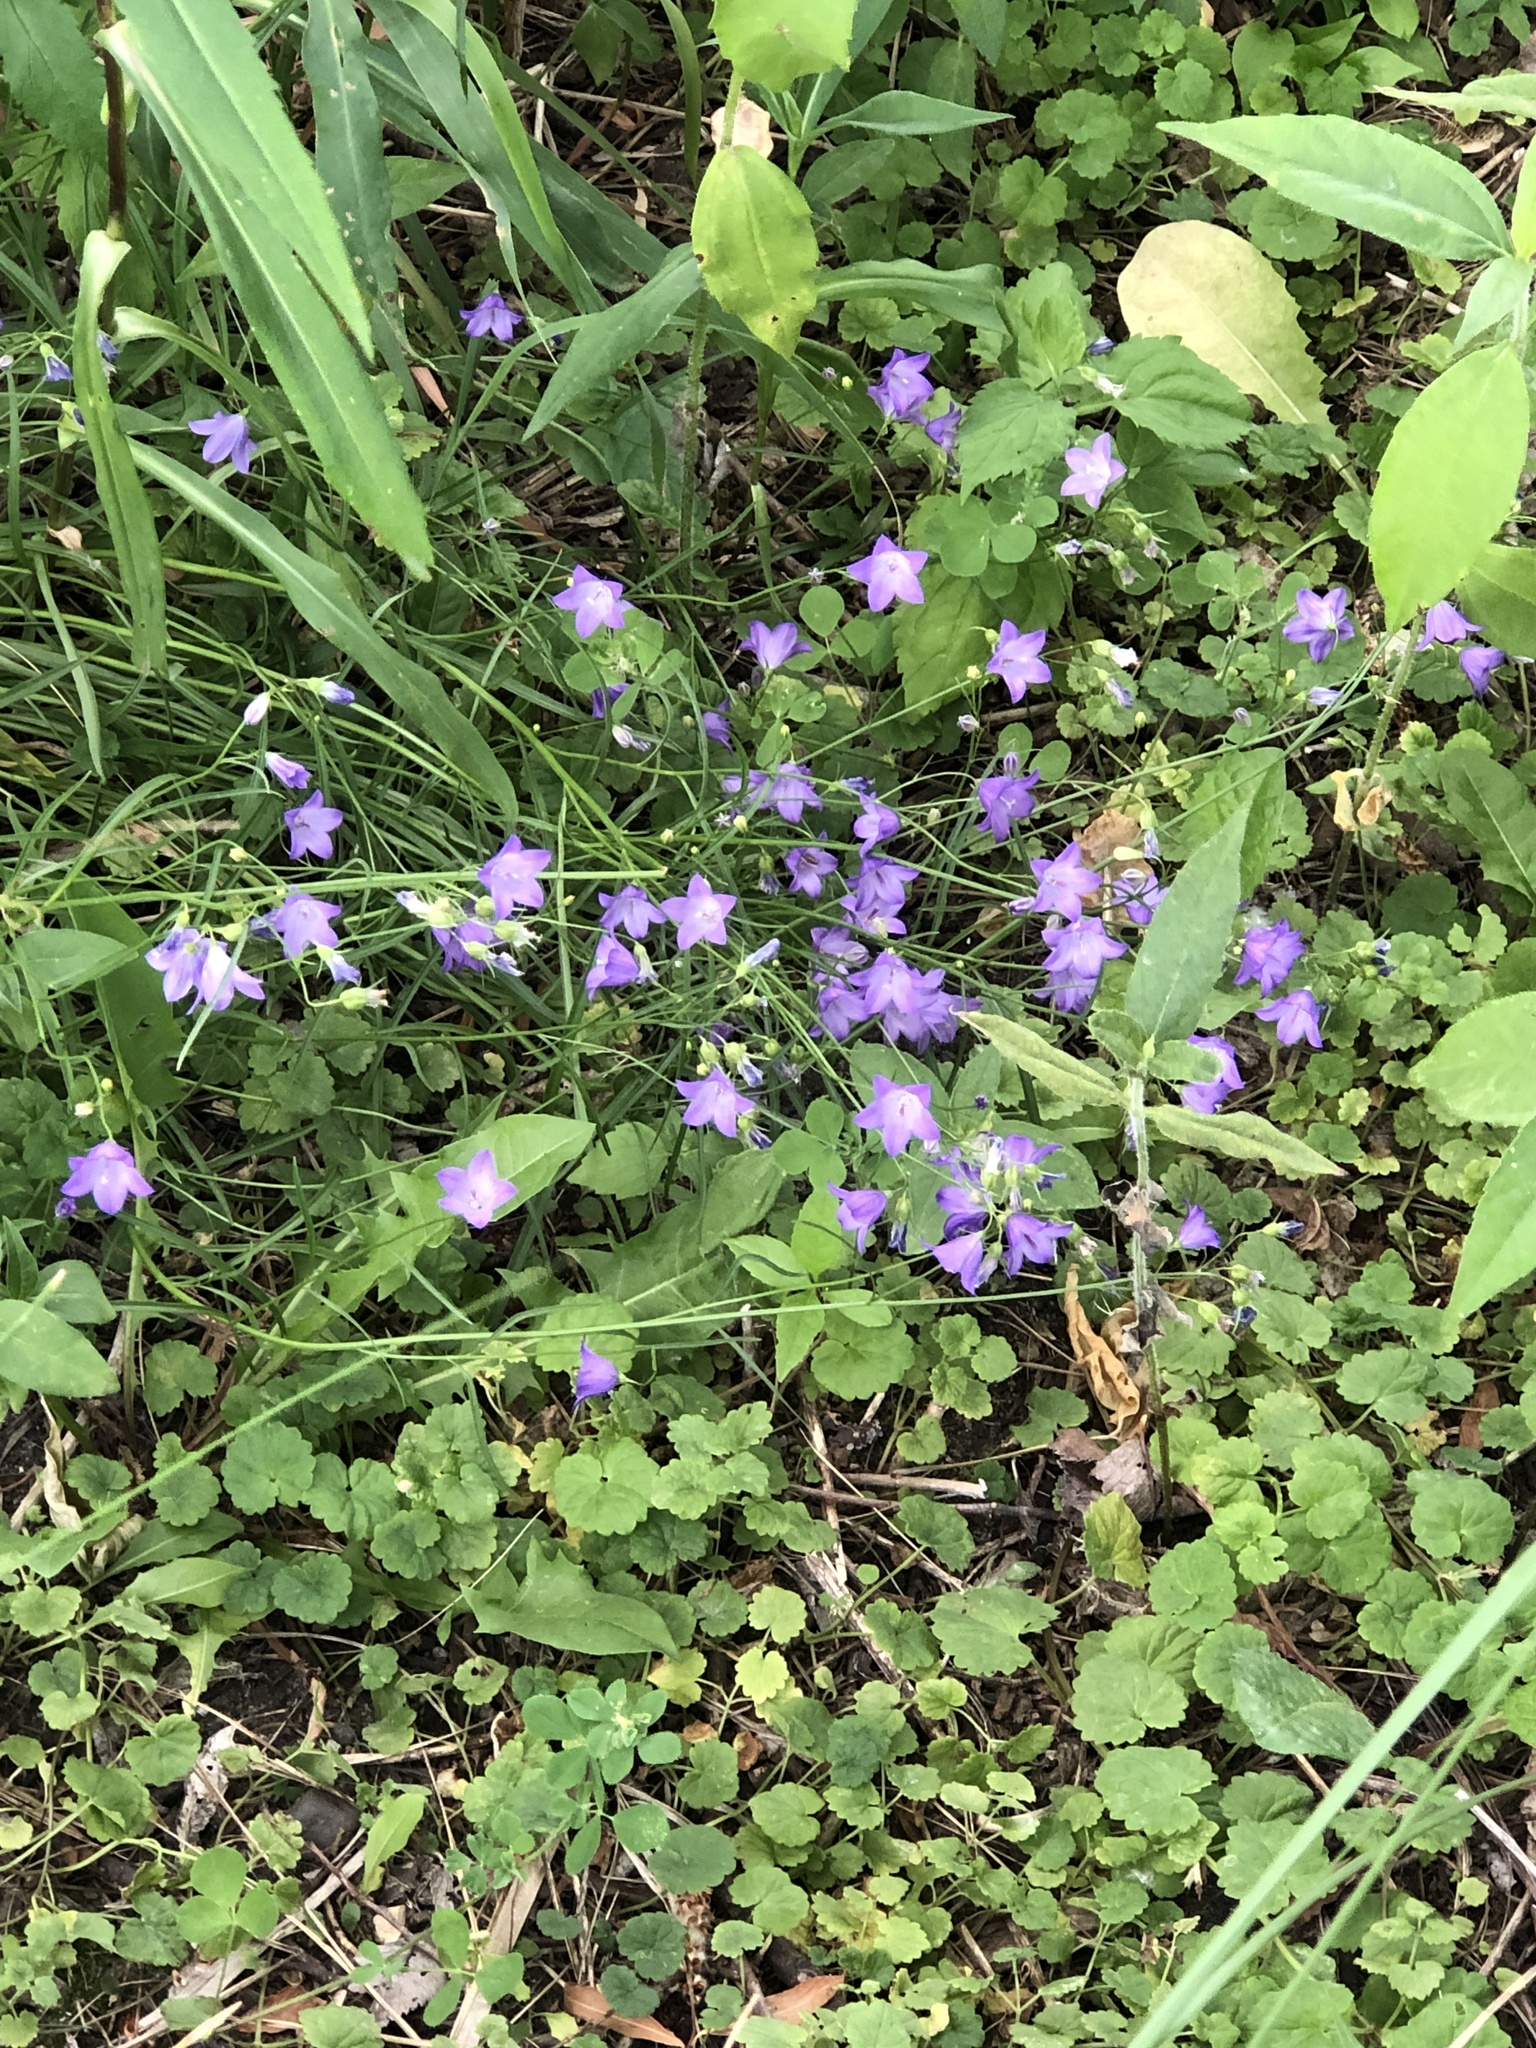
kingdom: Plantae
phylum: Tracheophyta
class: Magnoliopsida
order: Asterales
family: Campanulaceae
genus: Campanula
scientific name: Campanula intercedens
